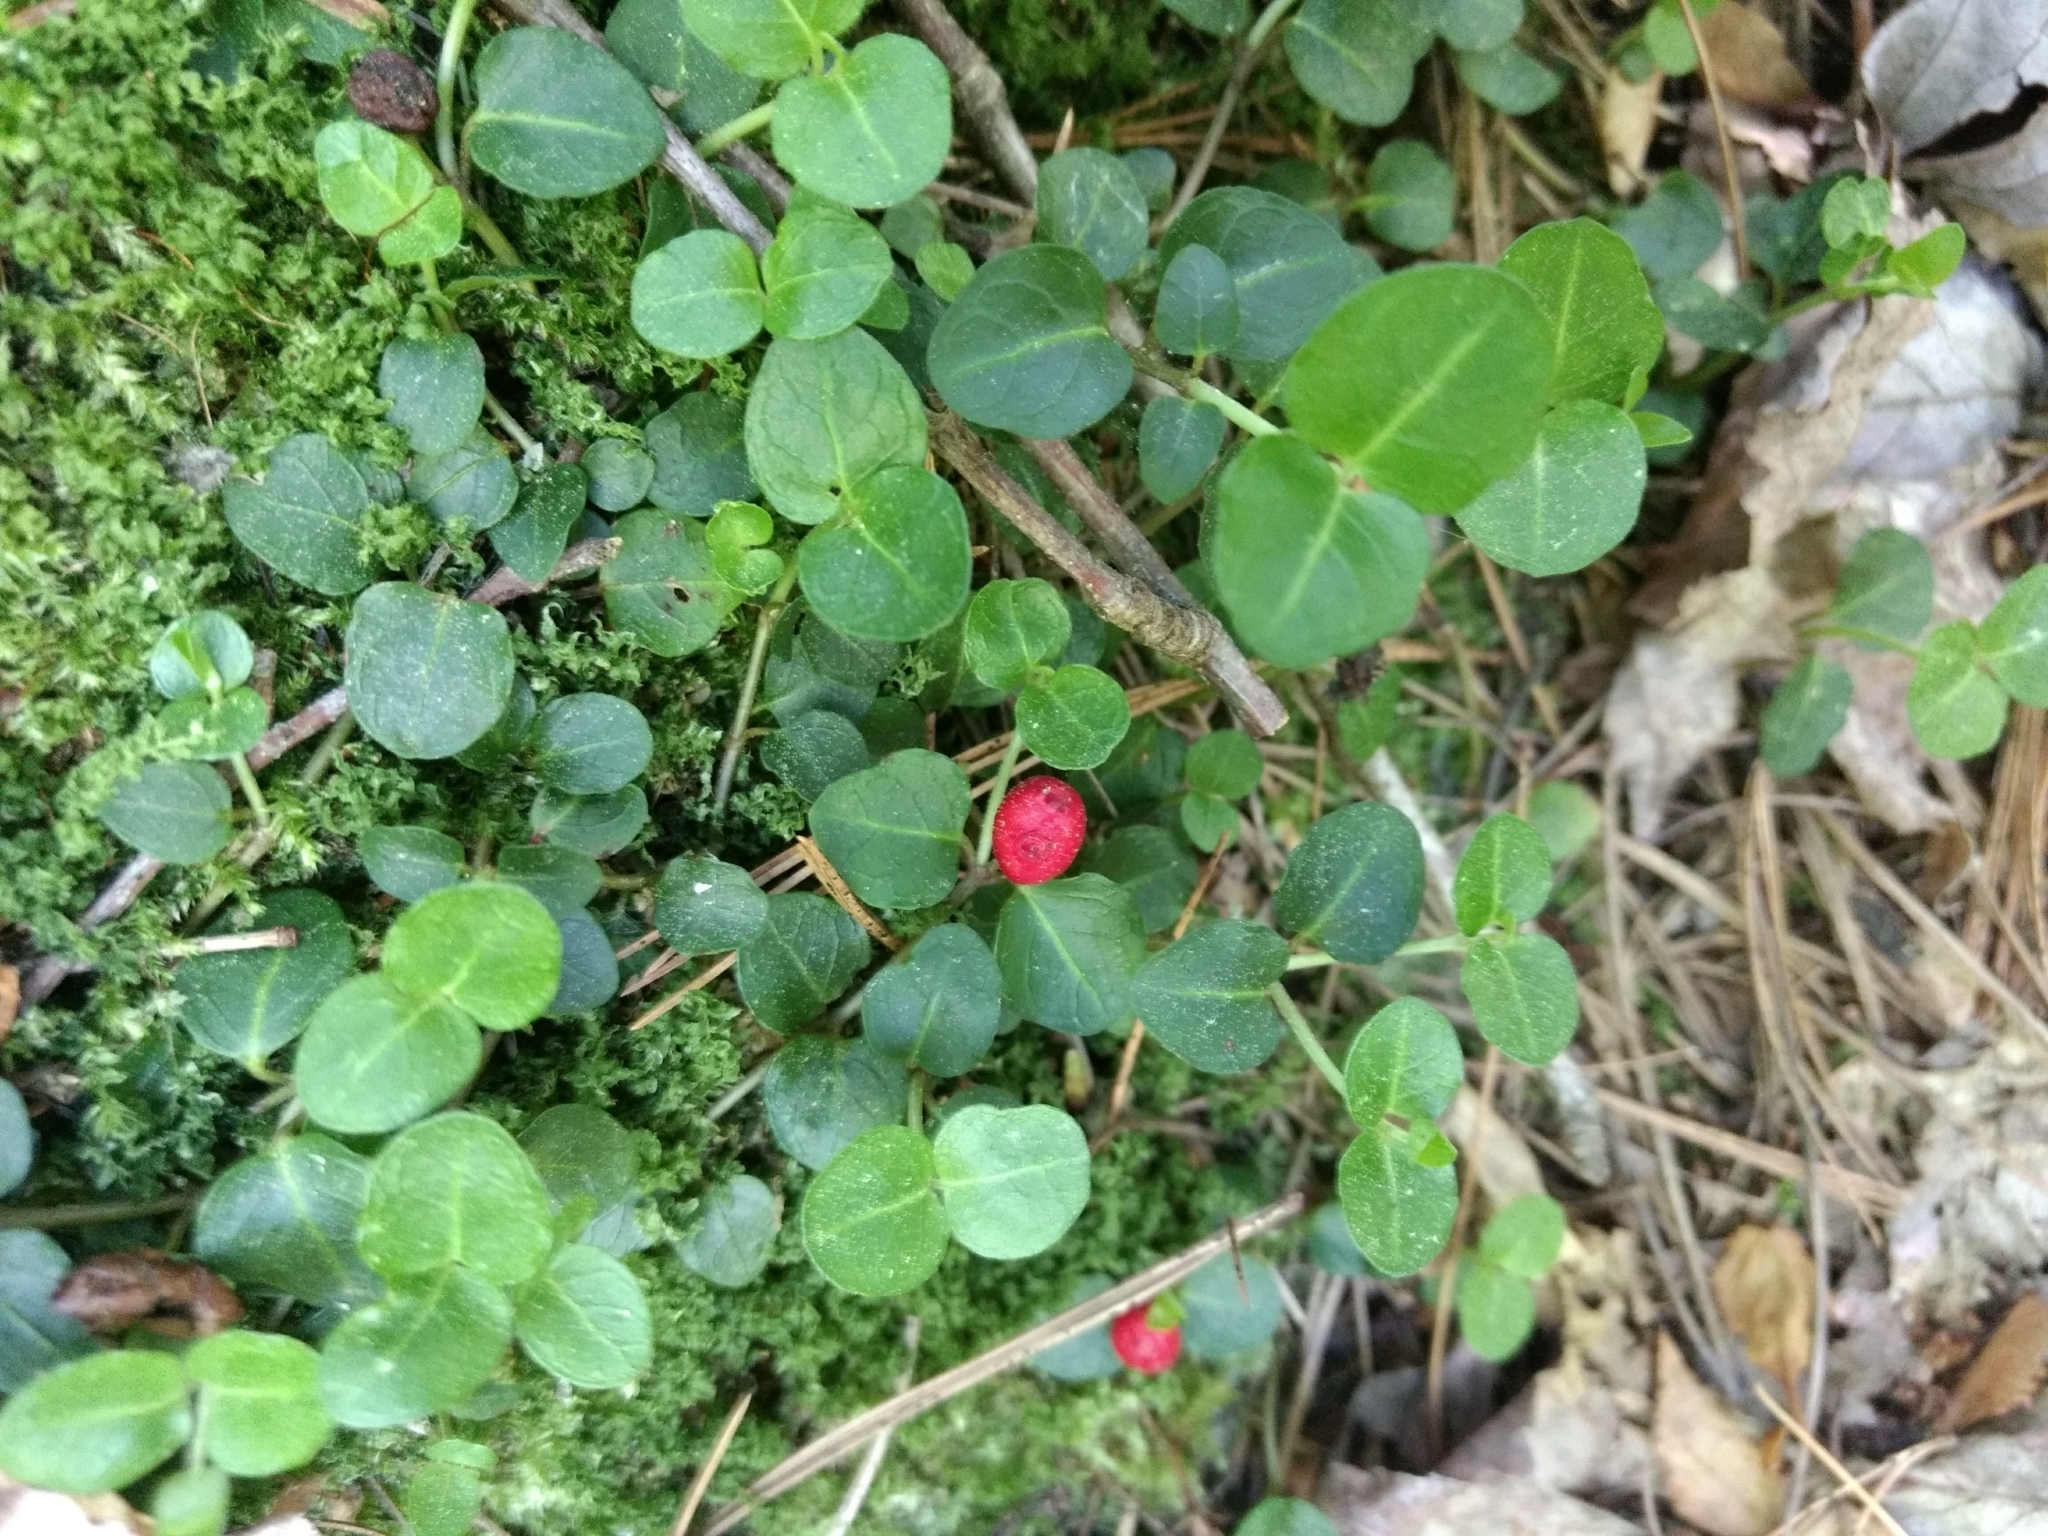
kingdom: Plantae
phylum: Tracheophyta
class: Magnoliopsida
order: Gentianales
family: Rubiaceae
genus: Mitchella
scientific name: Mitchella repens
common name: Partridge-berry
